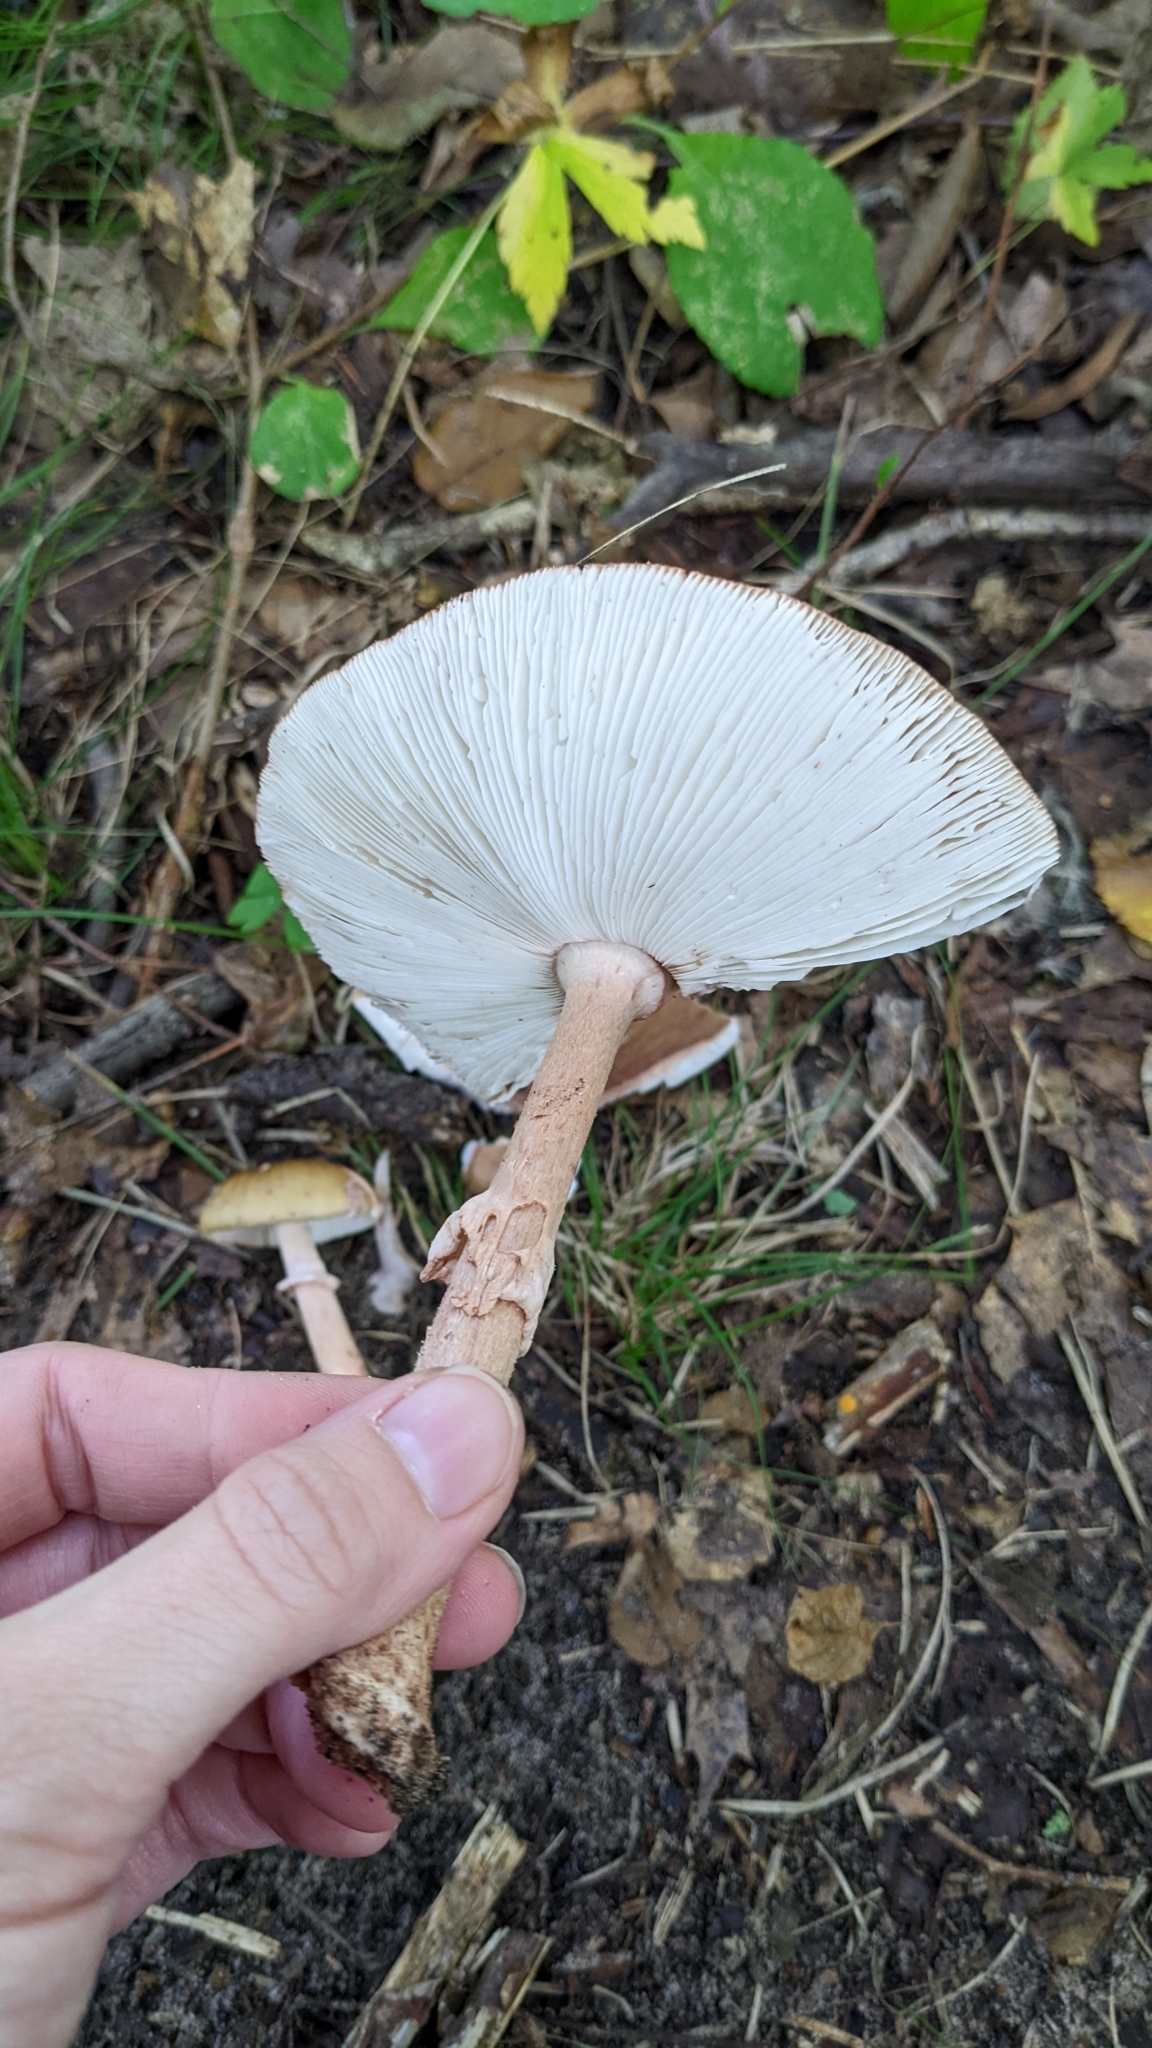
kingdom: Fungi
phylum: Basidiomycota
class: Agaricomycetes
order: Agaricales
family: Amanitaceae
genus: Amanita
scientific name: Amanita rubescens
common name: Blusher
